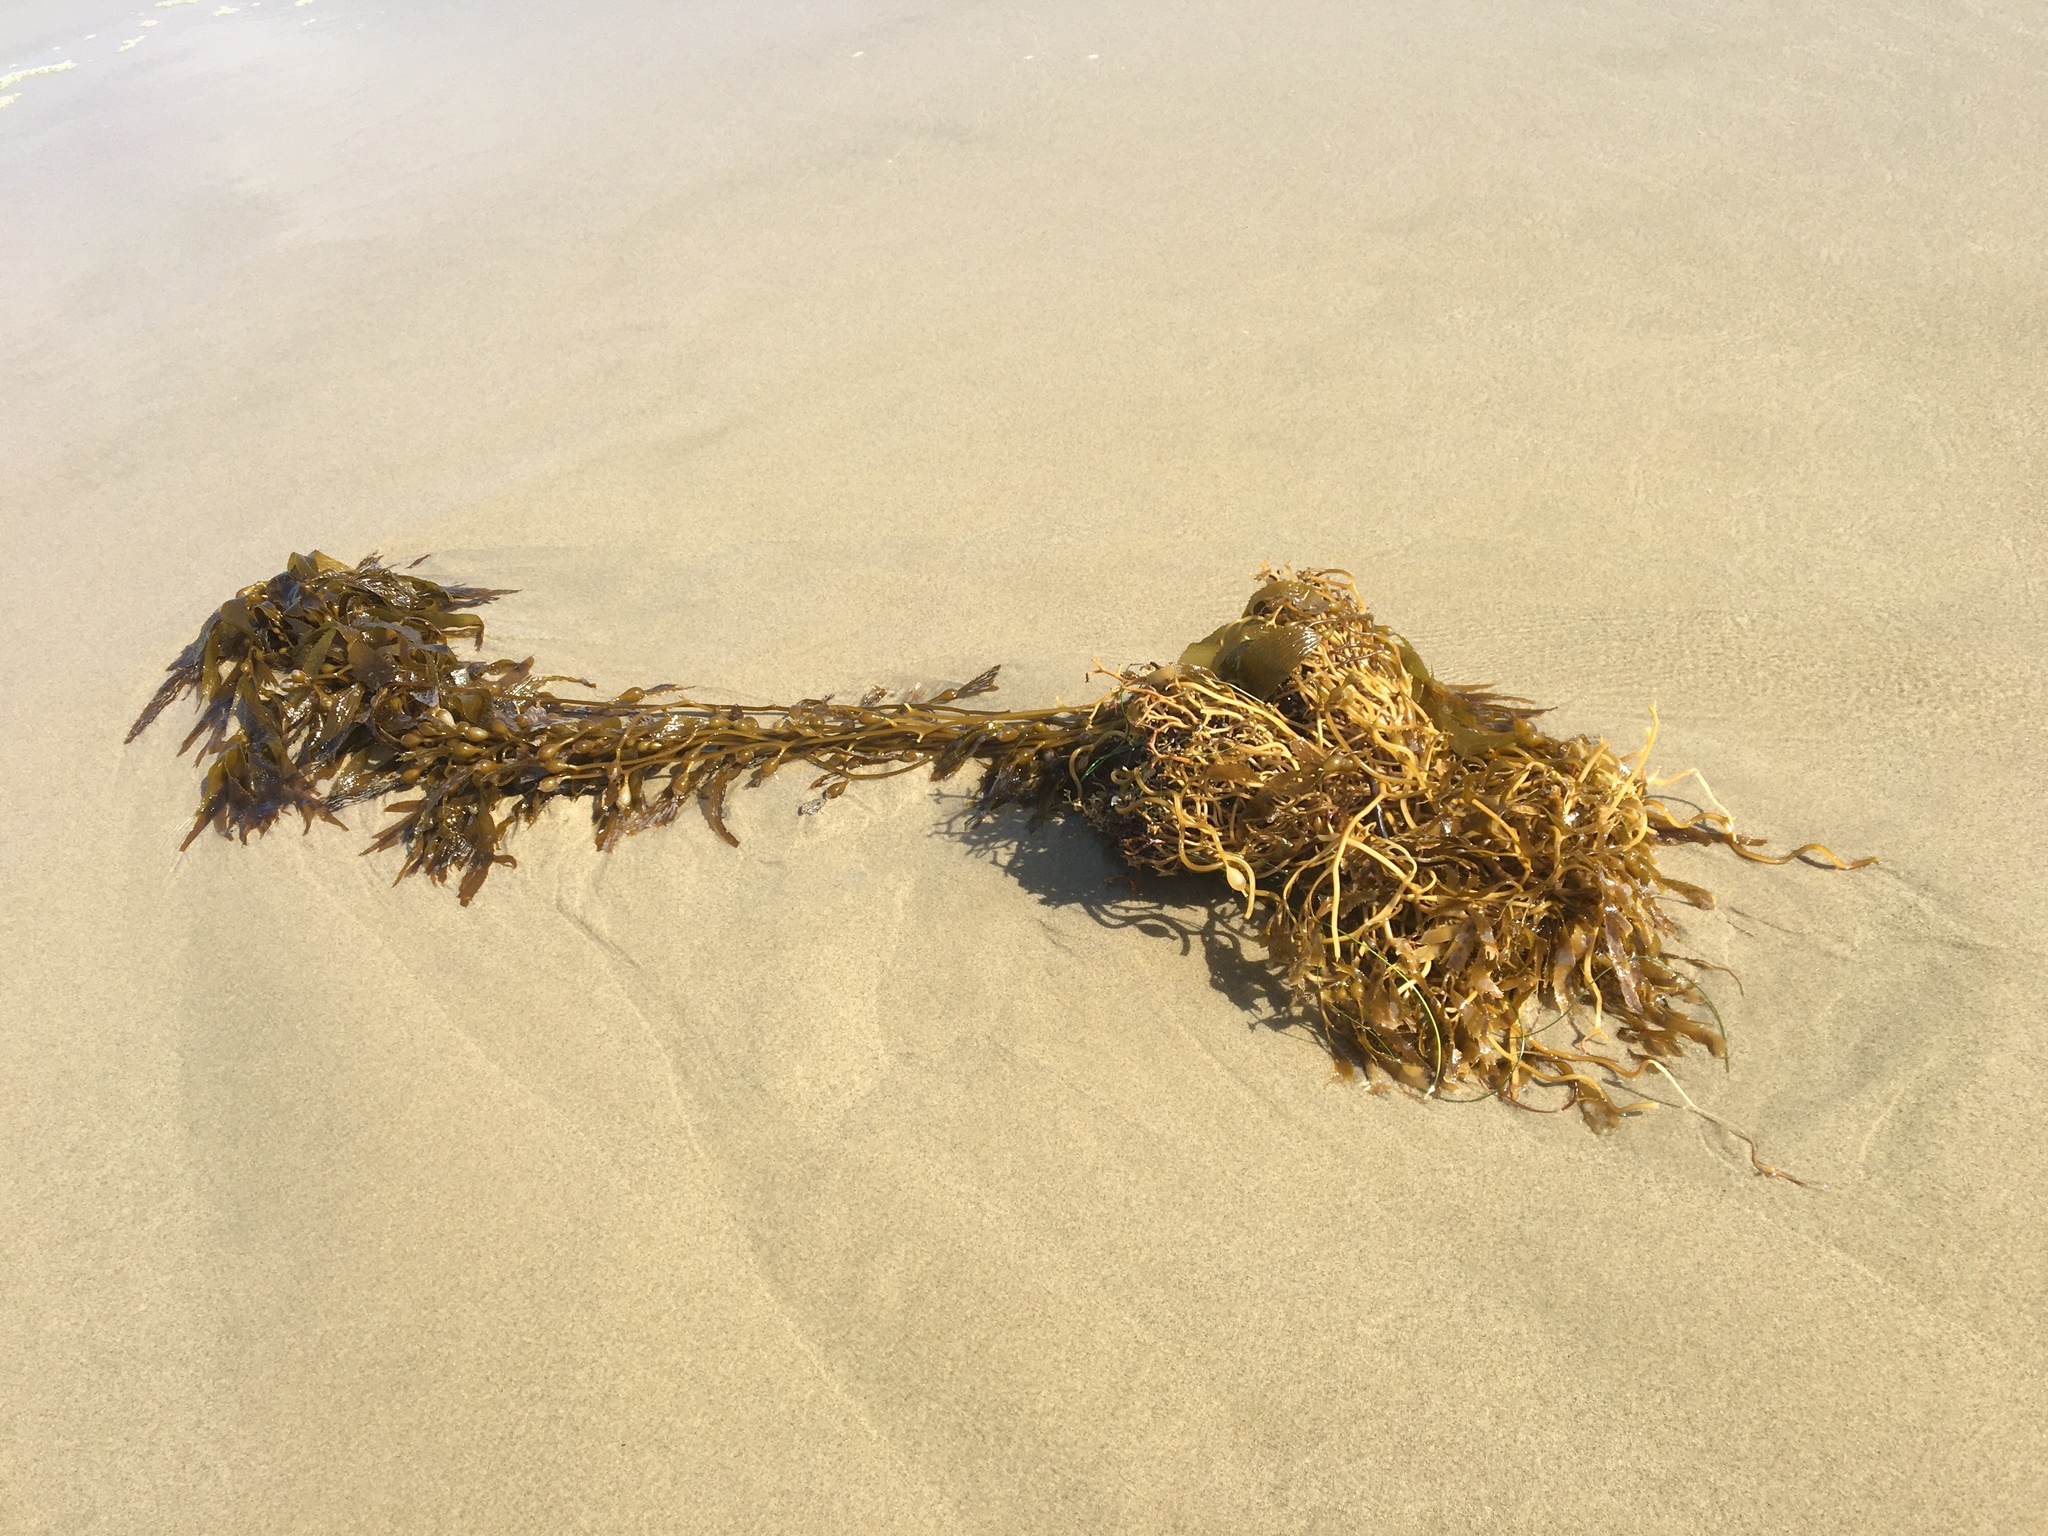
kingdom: Chromista
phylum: Ochrophyta
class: Phaeophyceae
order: Laminariales
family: Laminariaceae
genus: Macrocystis
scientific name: Macrocystis pyrifera
